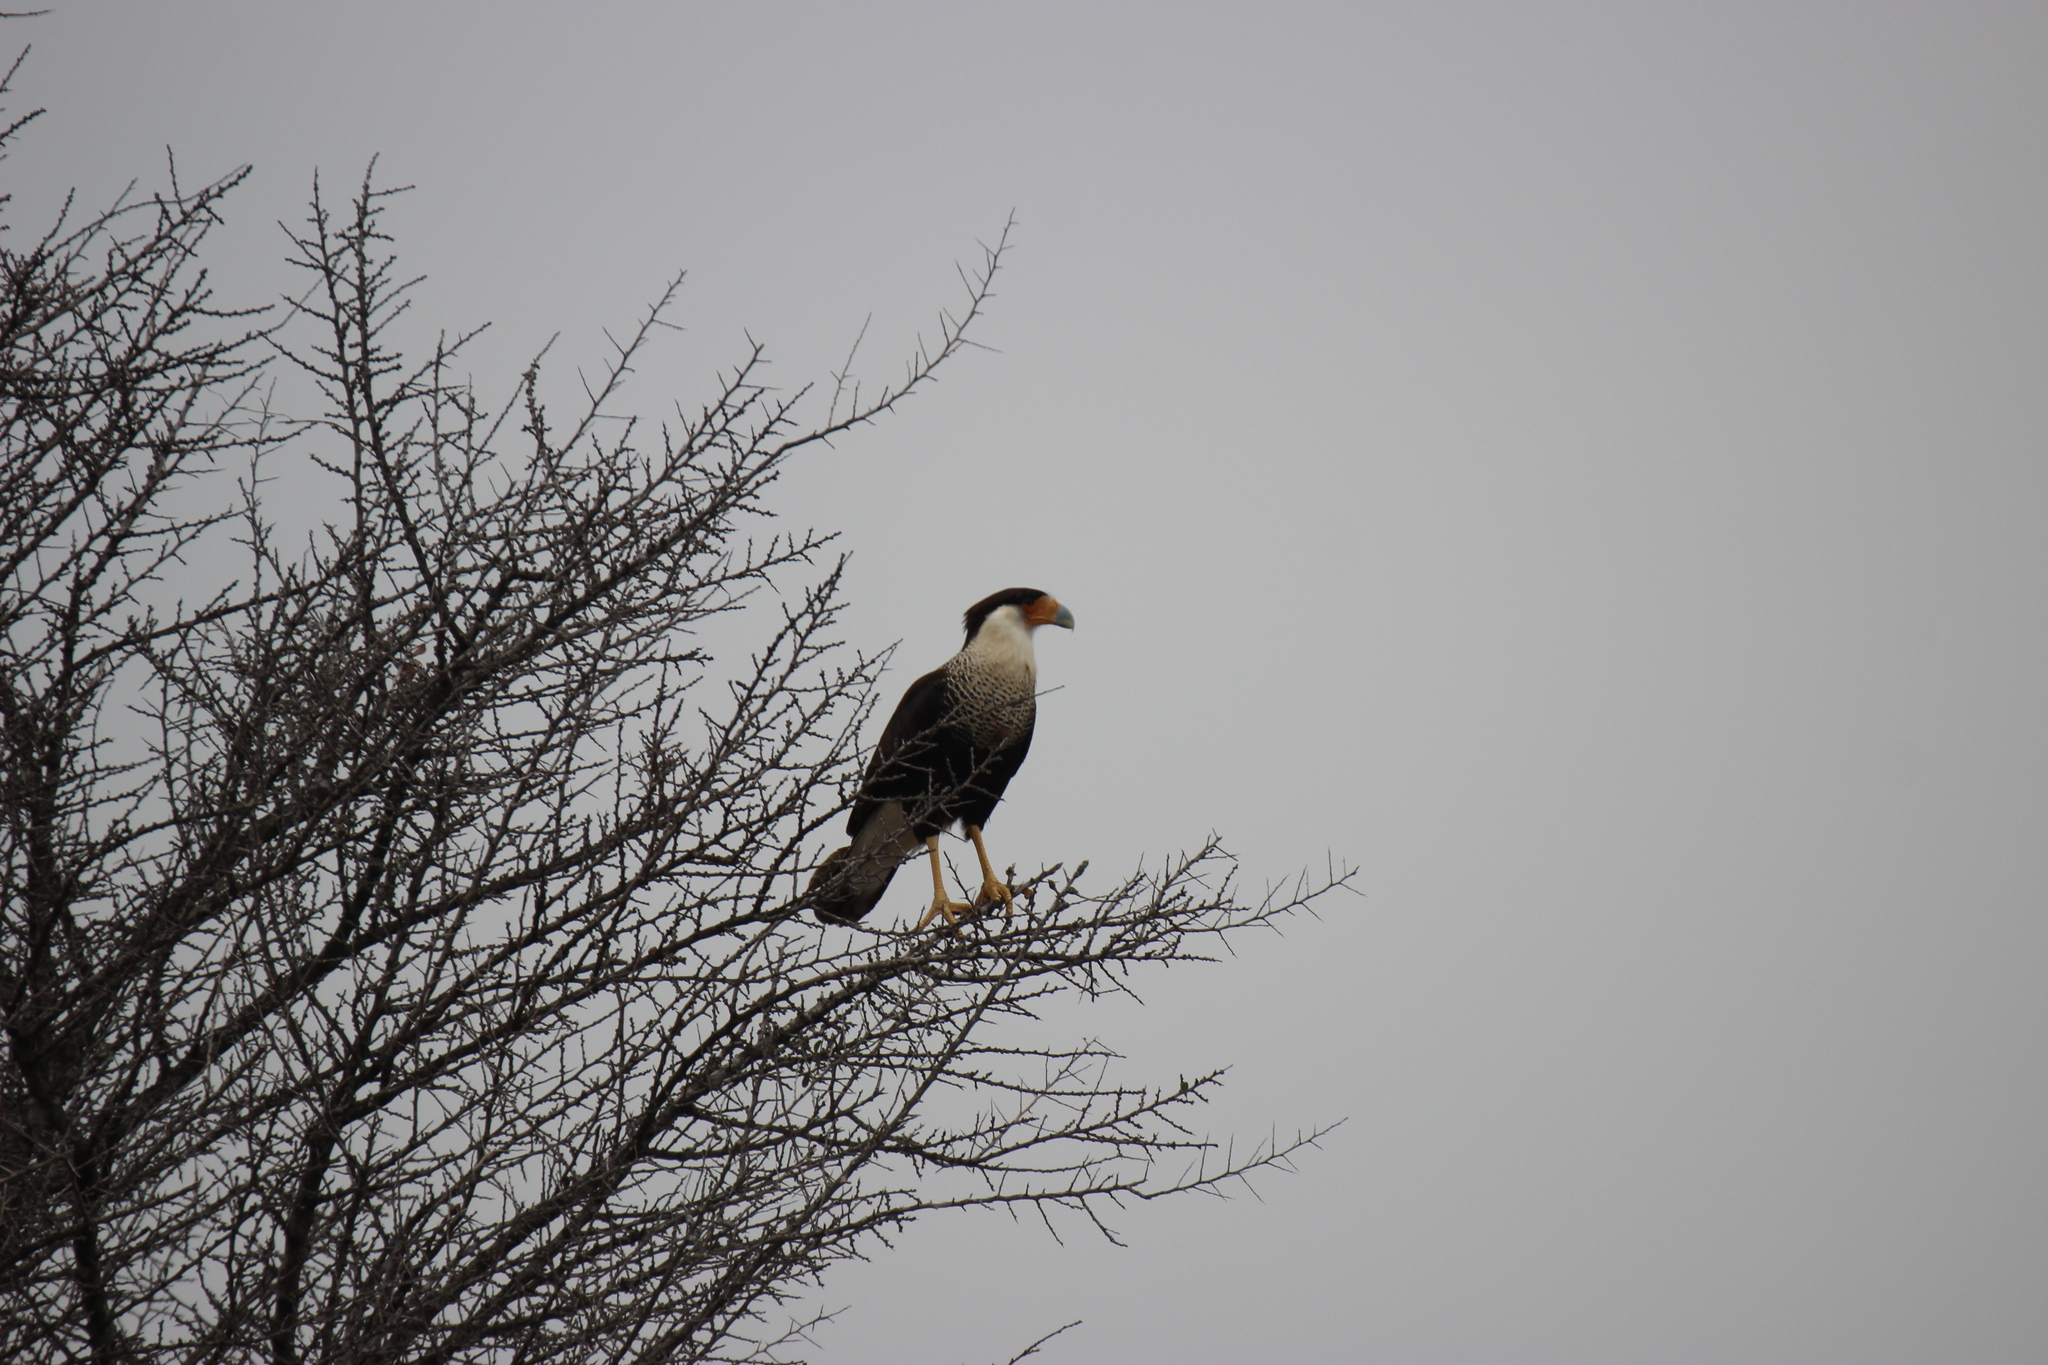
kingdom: Animalia
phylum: Chordata
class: Aves
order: Falconiformes
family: Falconidae
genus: Caracara
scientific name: Caracara plancus
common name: Southern caracara
